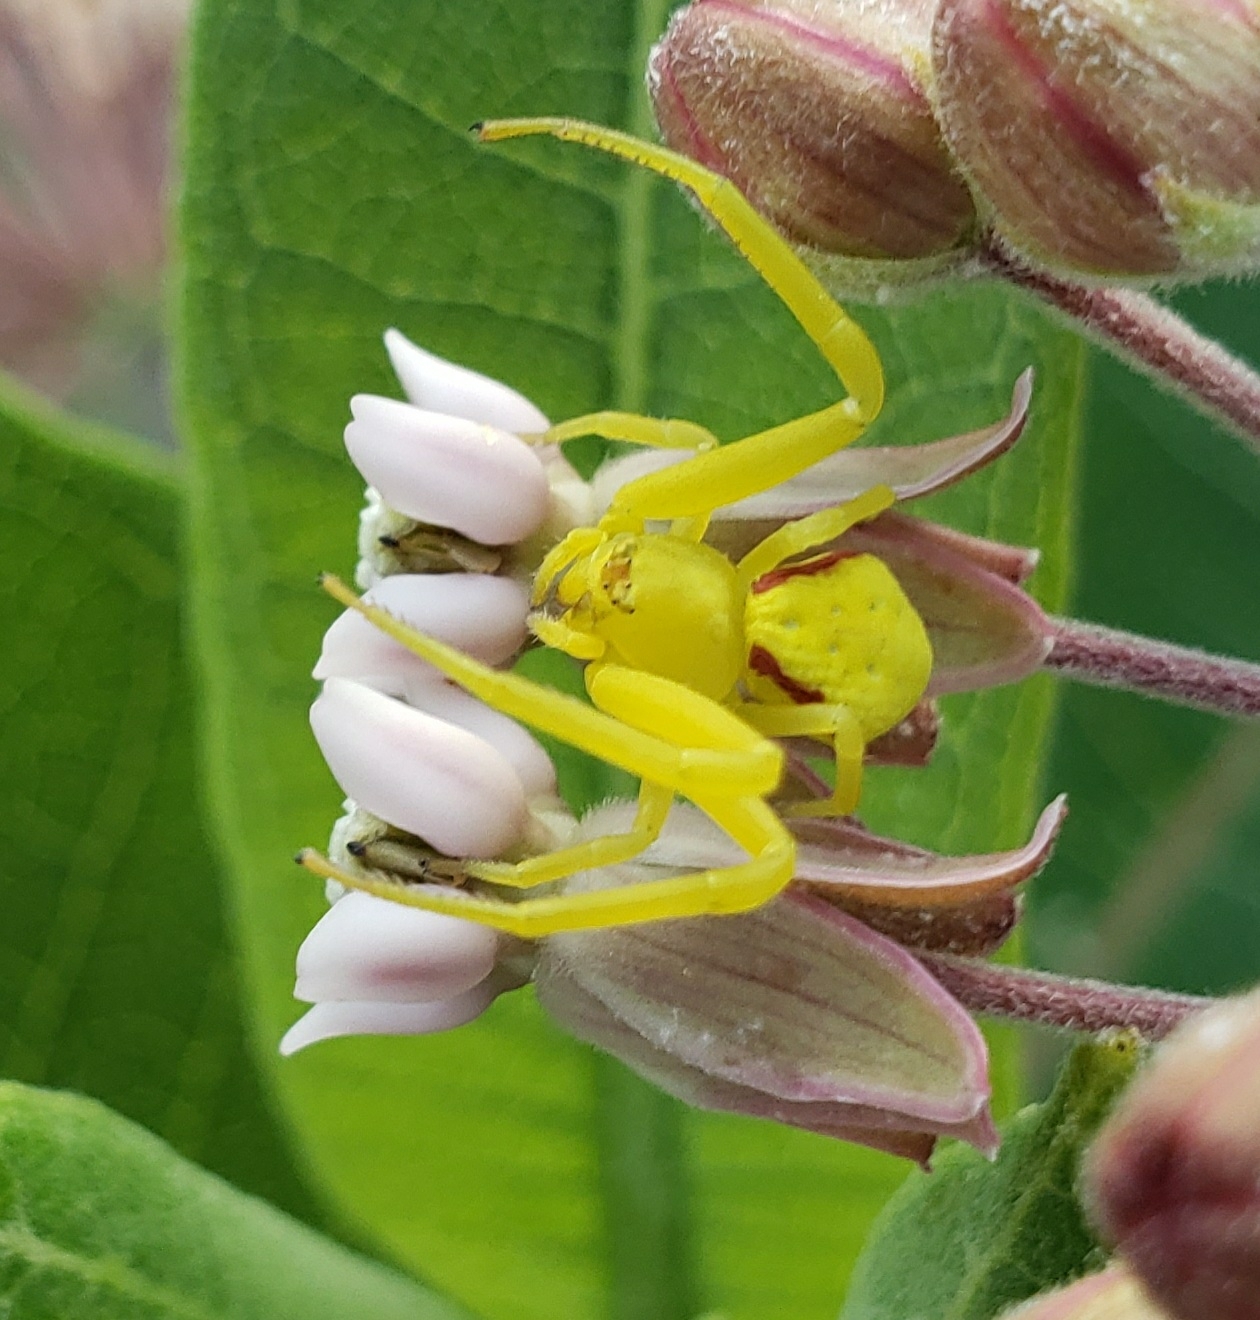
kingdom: Animalia
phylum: Arthropoda
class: Arachnida
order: Araneae
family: Thomisidae
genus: Misumena
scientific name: Misumena vatia
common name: Goldenrod crab spider
